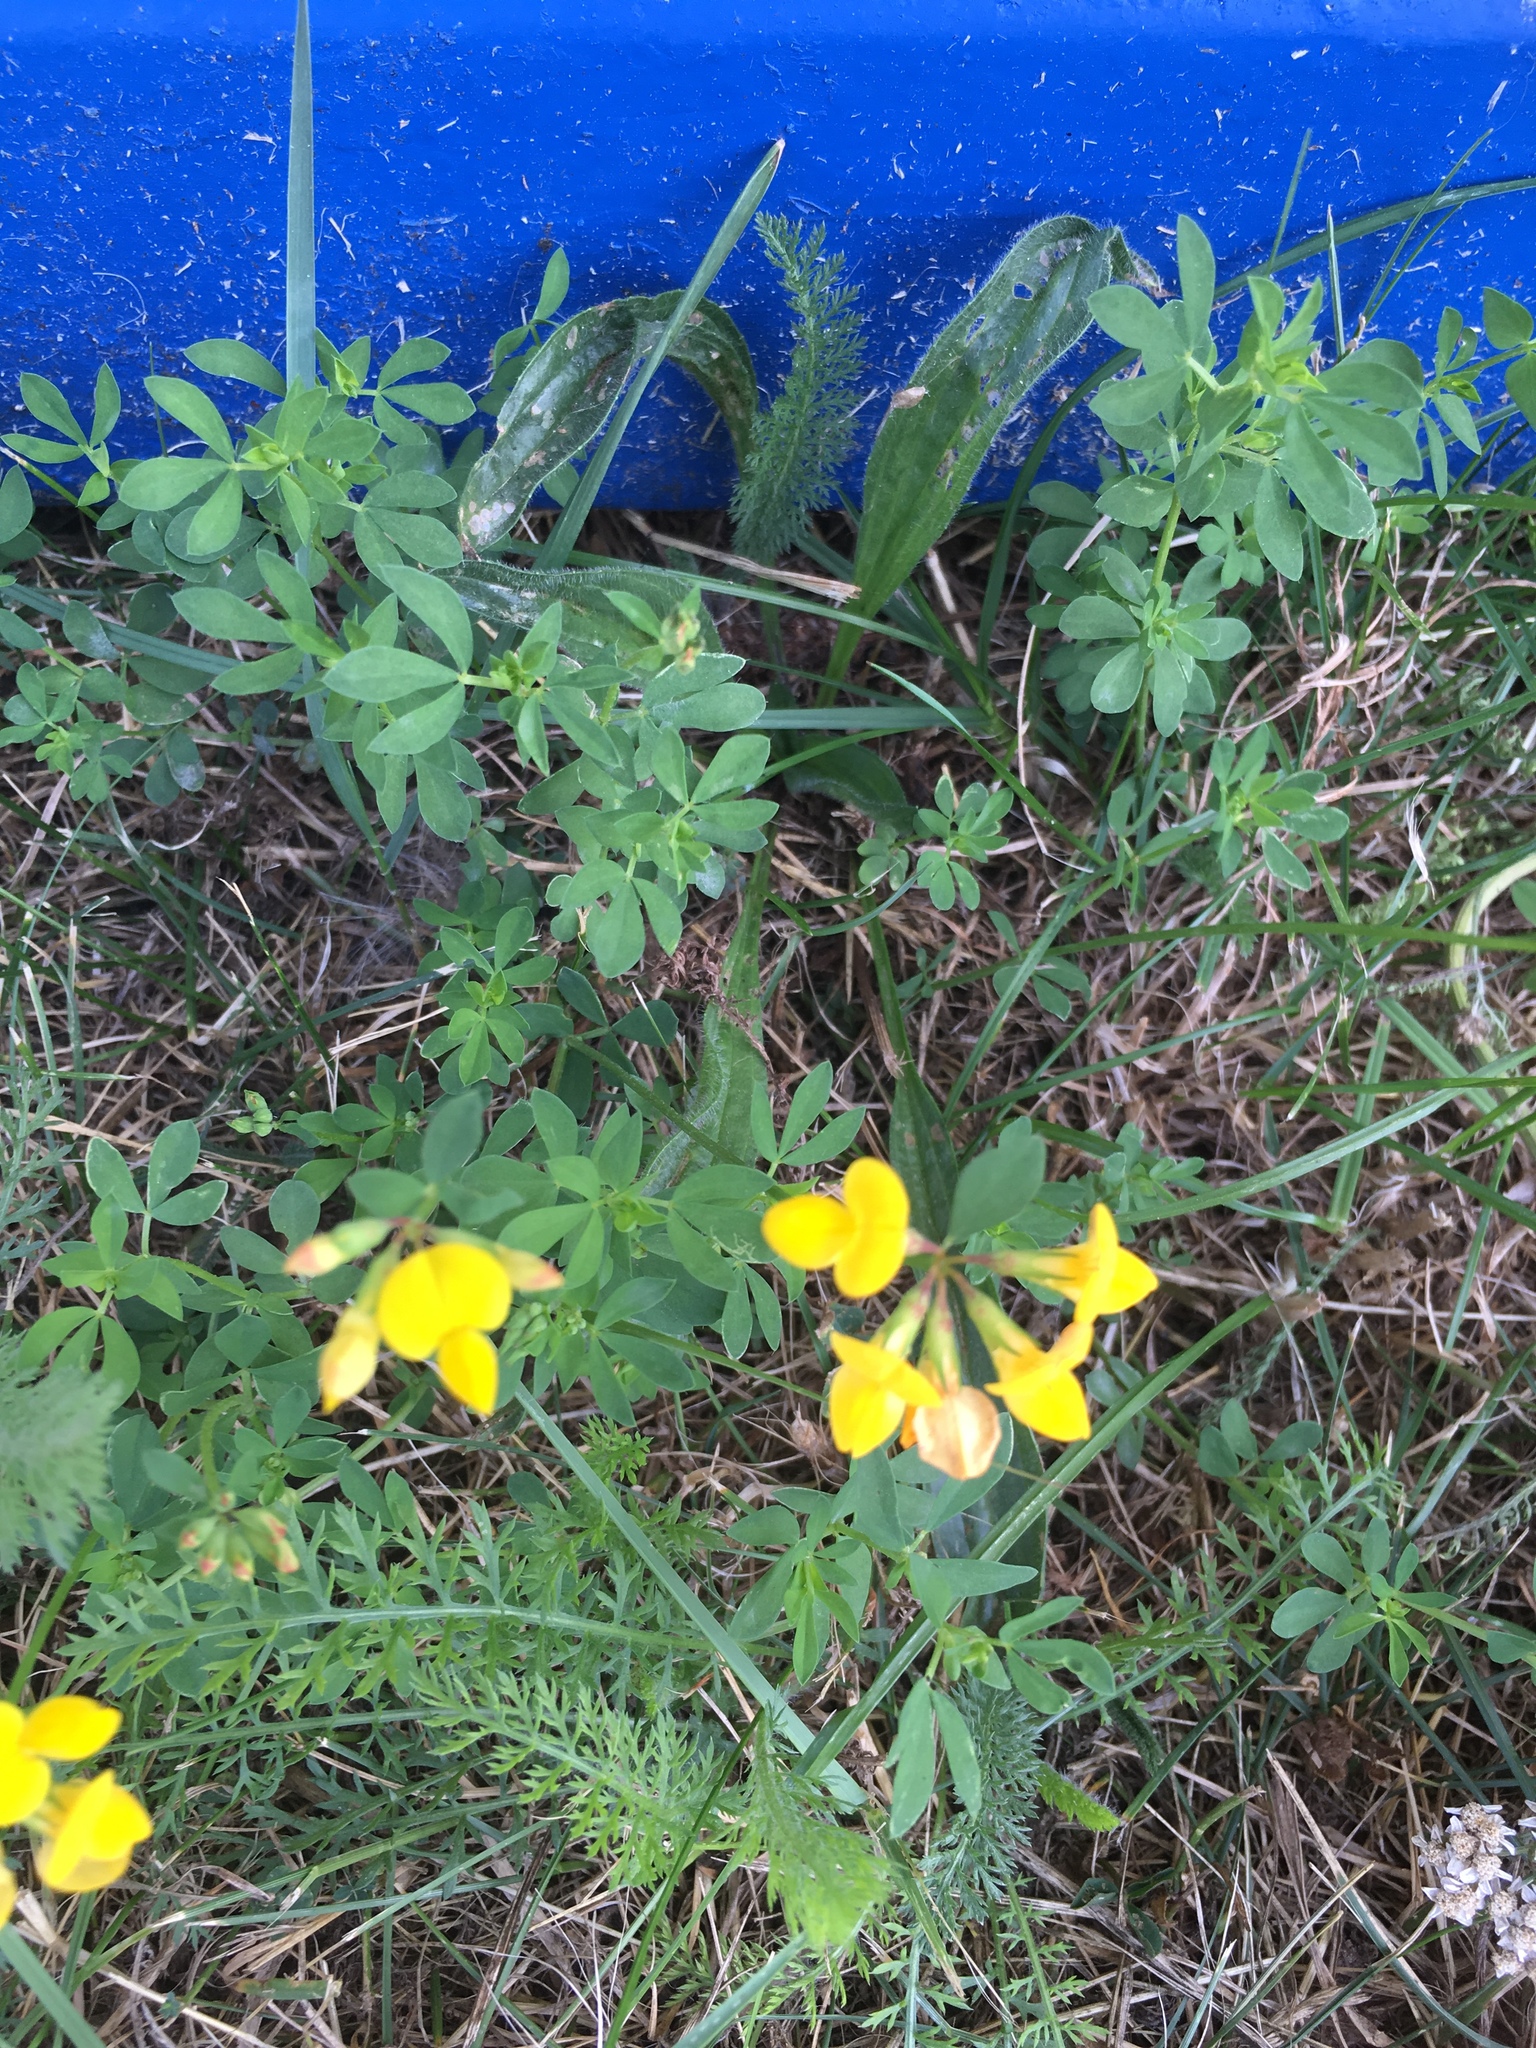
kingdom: Plantae
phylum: Tracheophyta
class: Magnoliopsida
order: Fabales
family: Fabaceae
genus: Lotus
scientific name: Lotus corniculatus
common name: Common bird's-foot-trefoil
